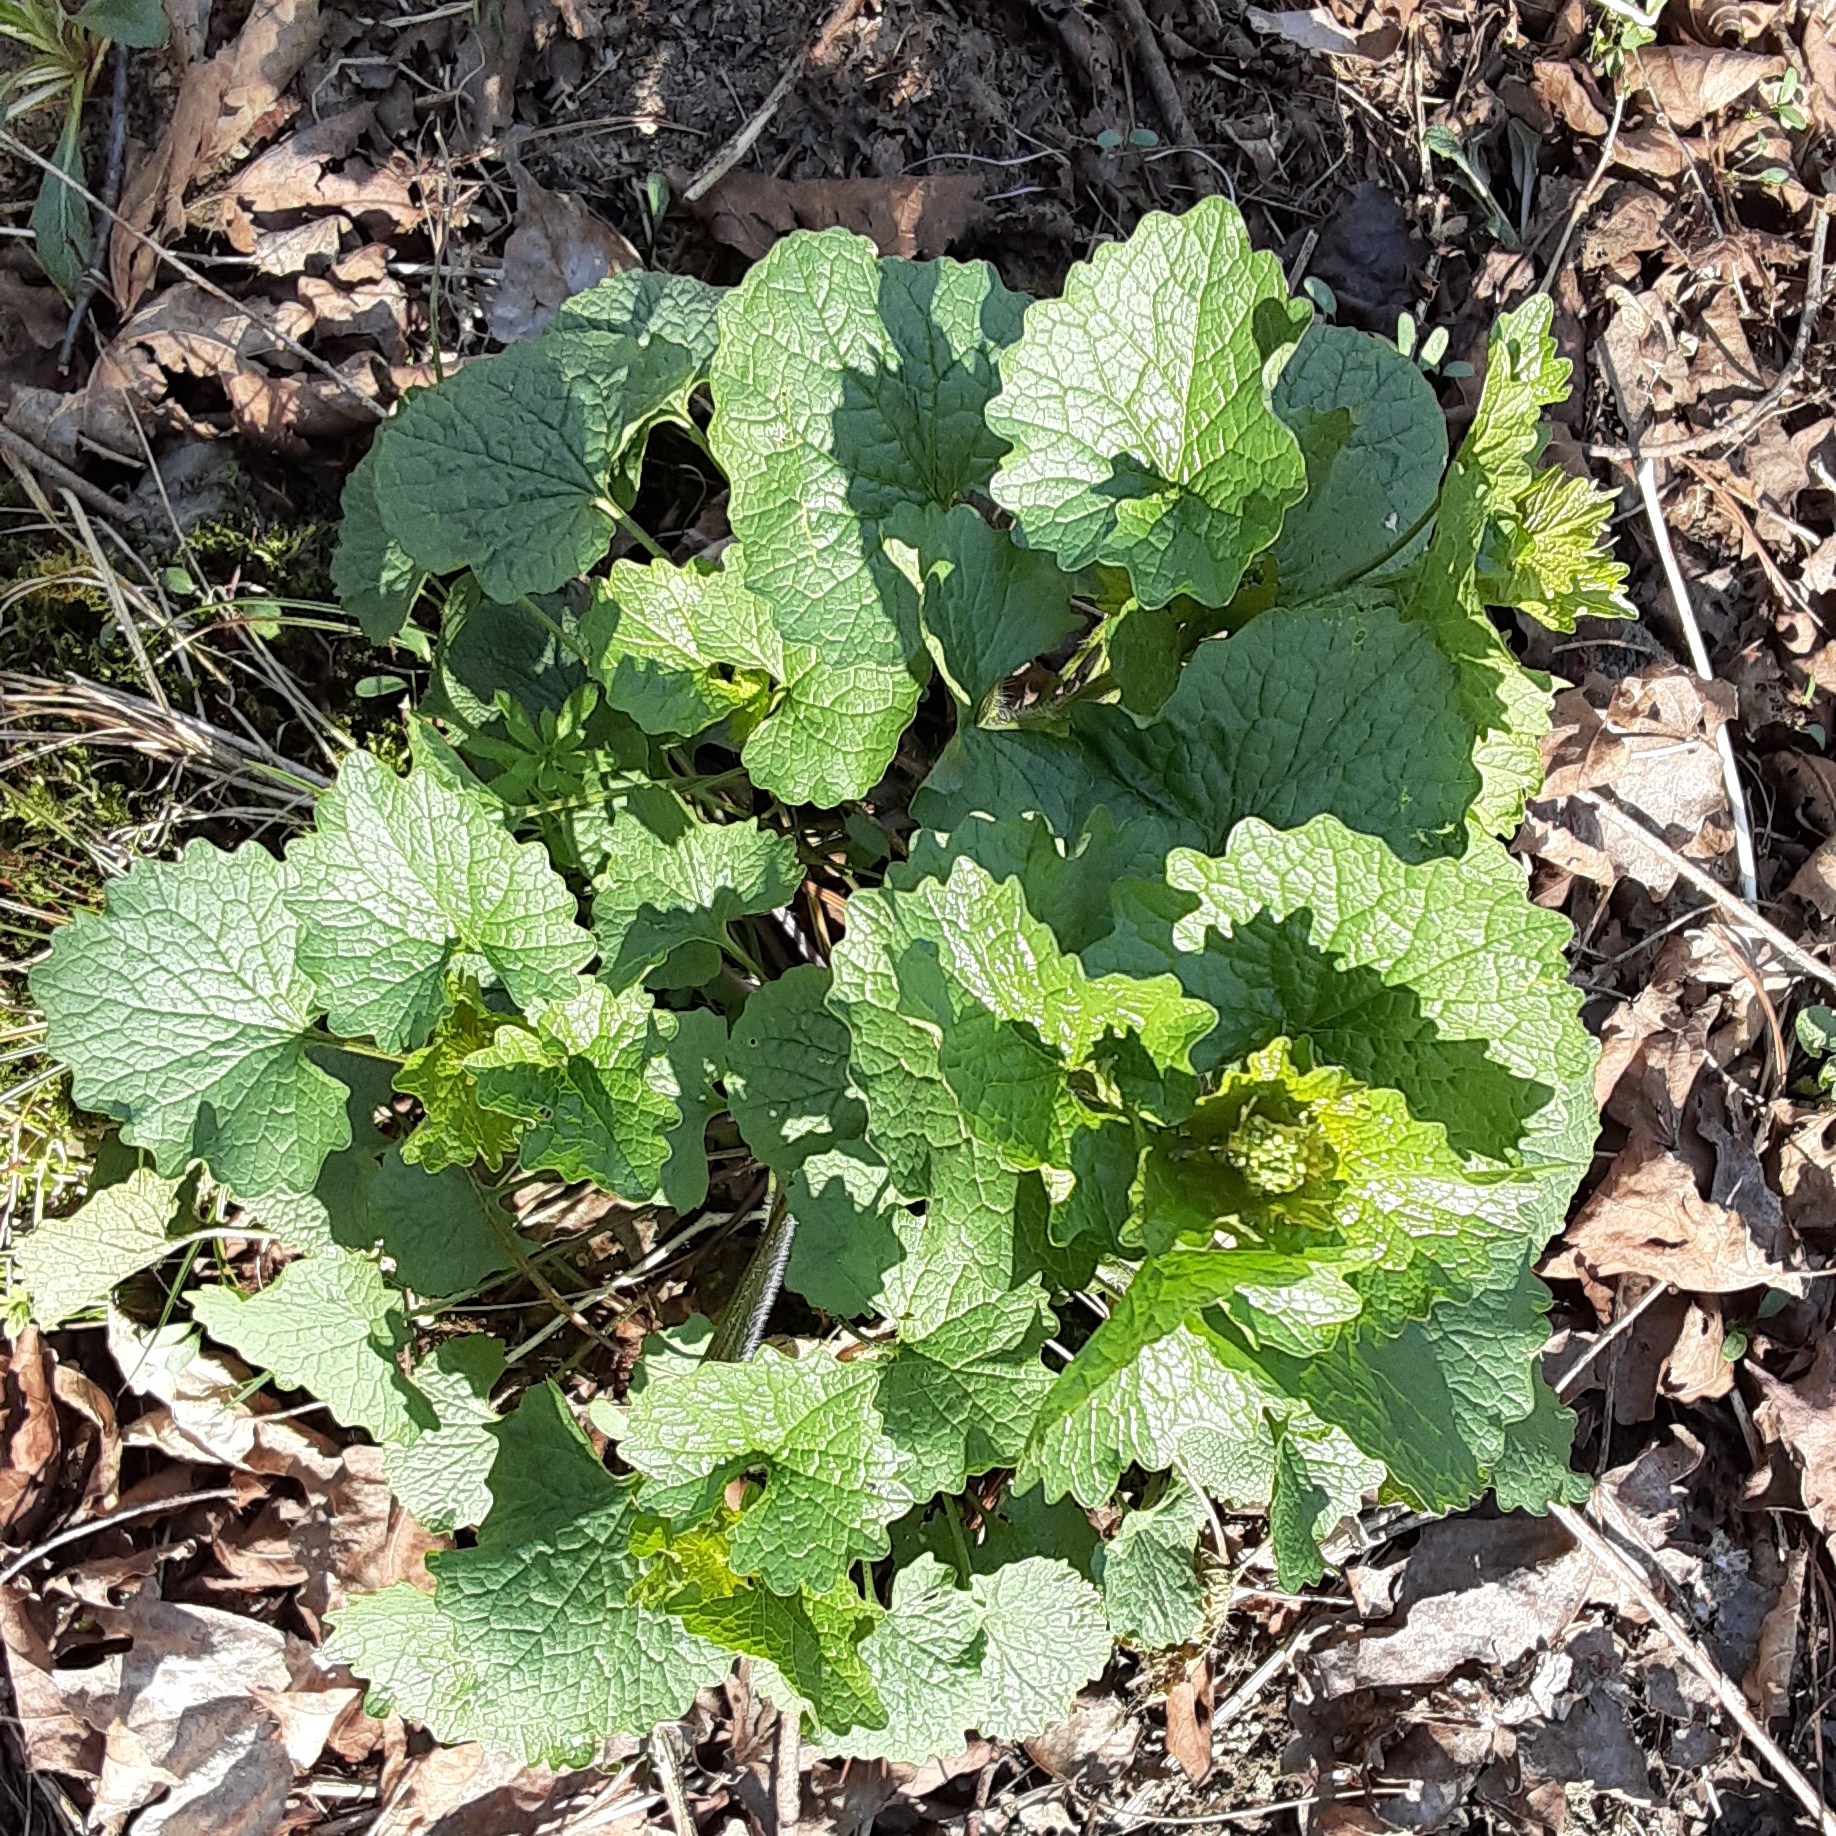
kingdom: Plantae
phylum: Tracheophyta
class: Magnoliopsida
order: Brassicales
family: Brassicaceae
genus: Alliaria
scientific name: Alliaria petiolata
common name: Garlic mustard
